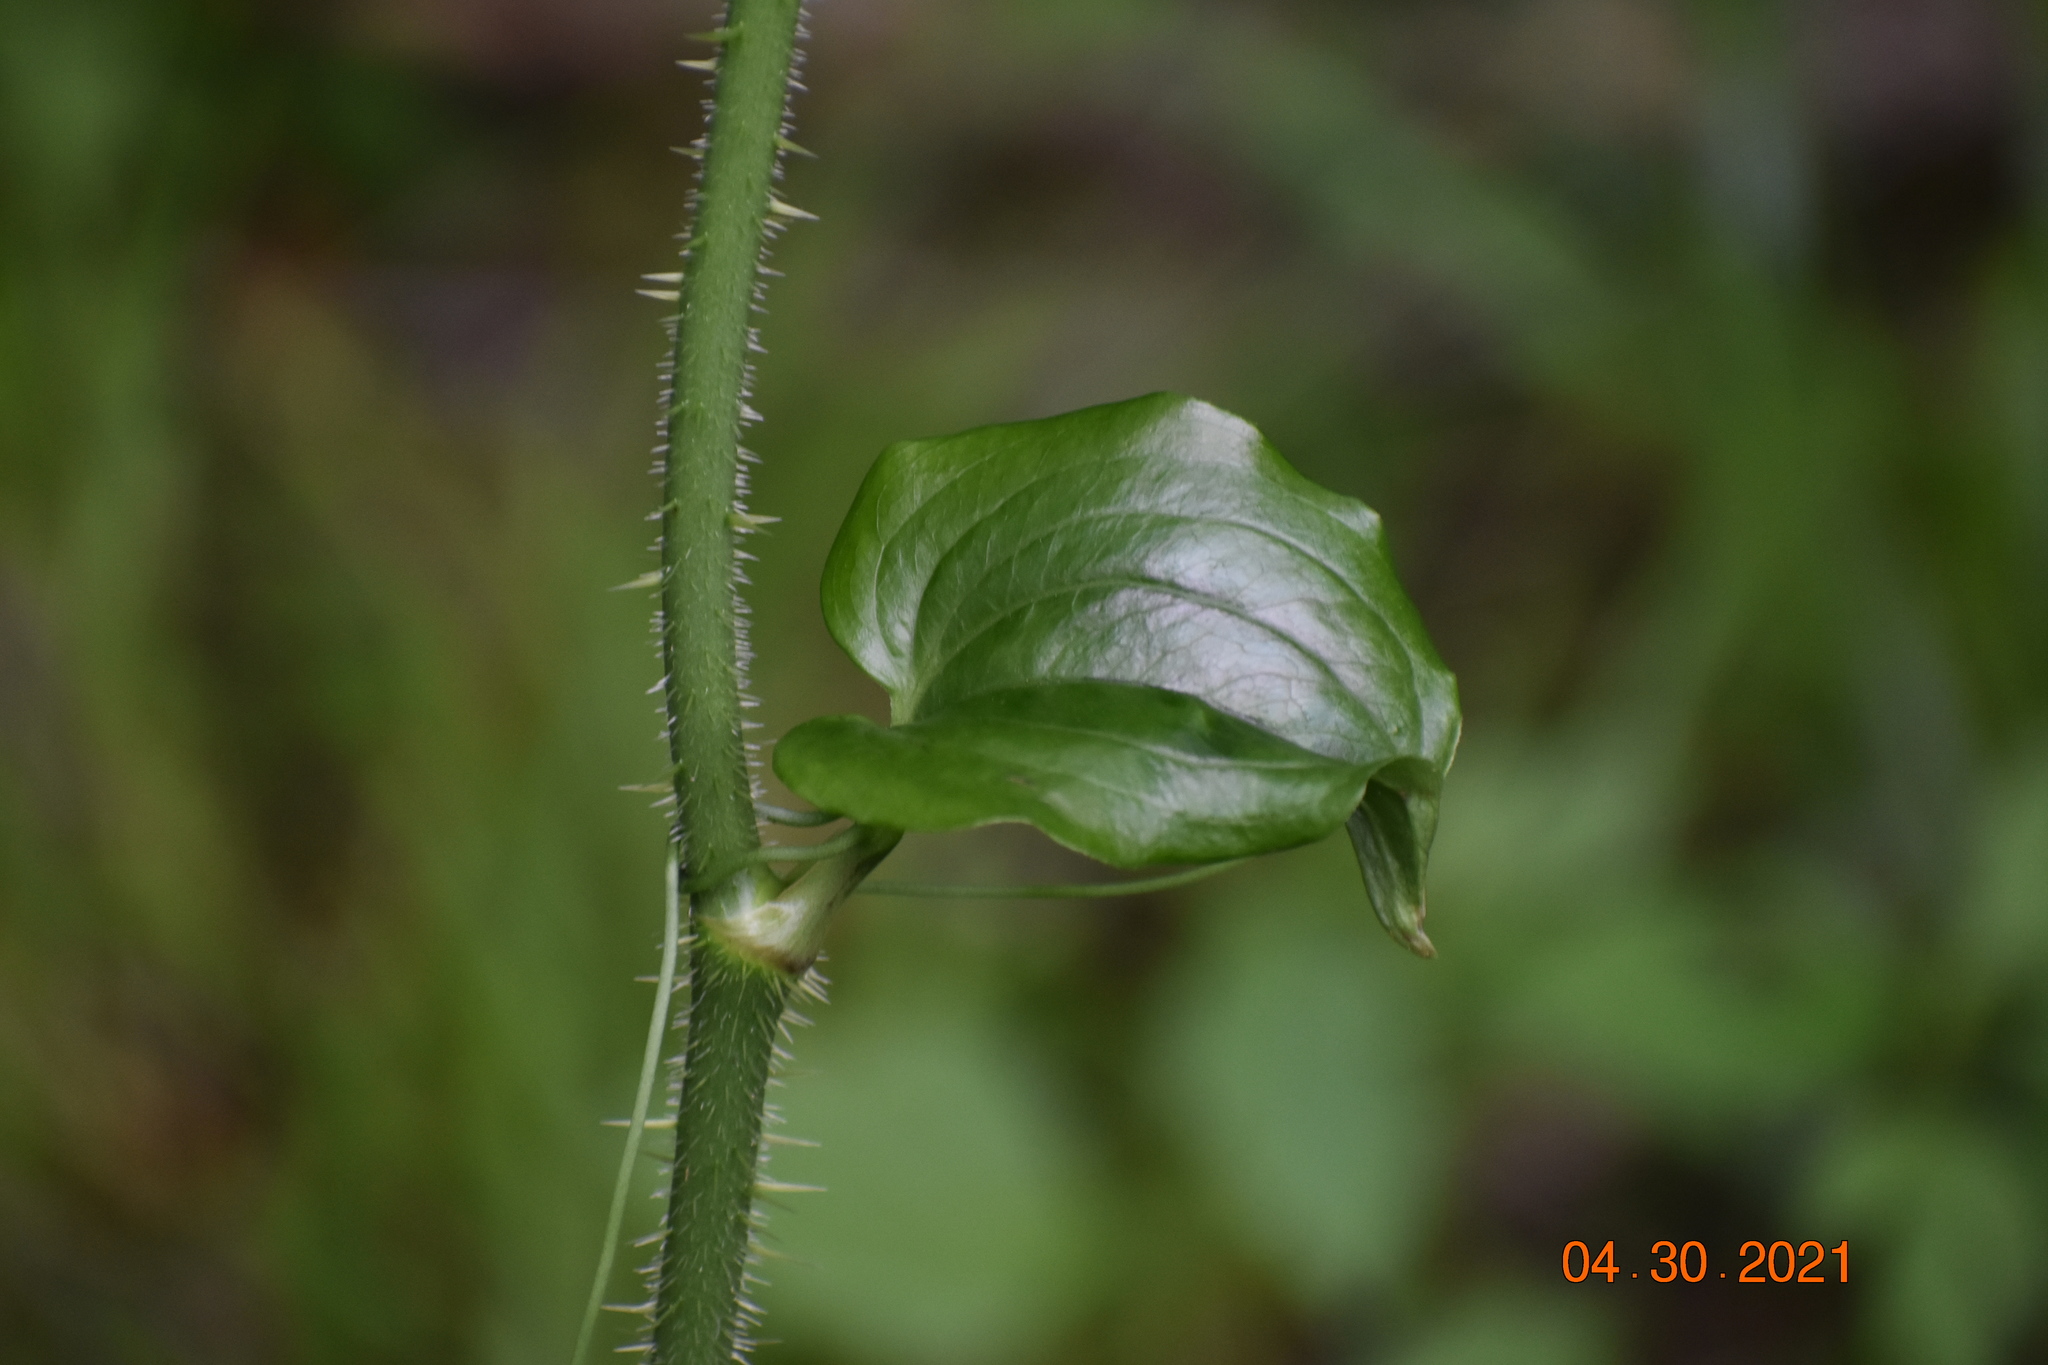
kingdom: Plantae
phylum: Tracheophyta
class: Liliopsida
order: Liliales
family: Smilacaceae
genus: Smilax
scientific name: Smilax tamnoides
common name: Hellfetter
